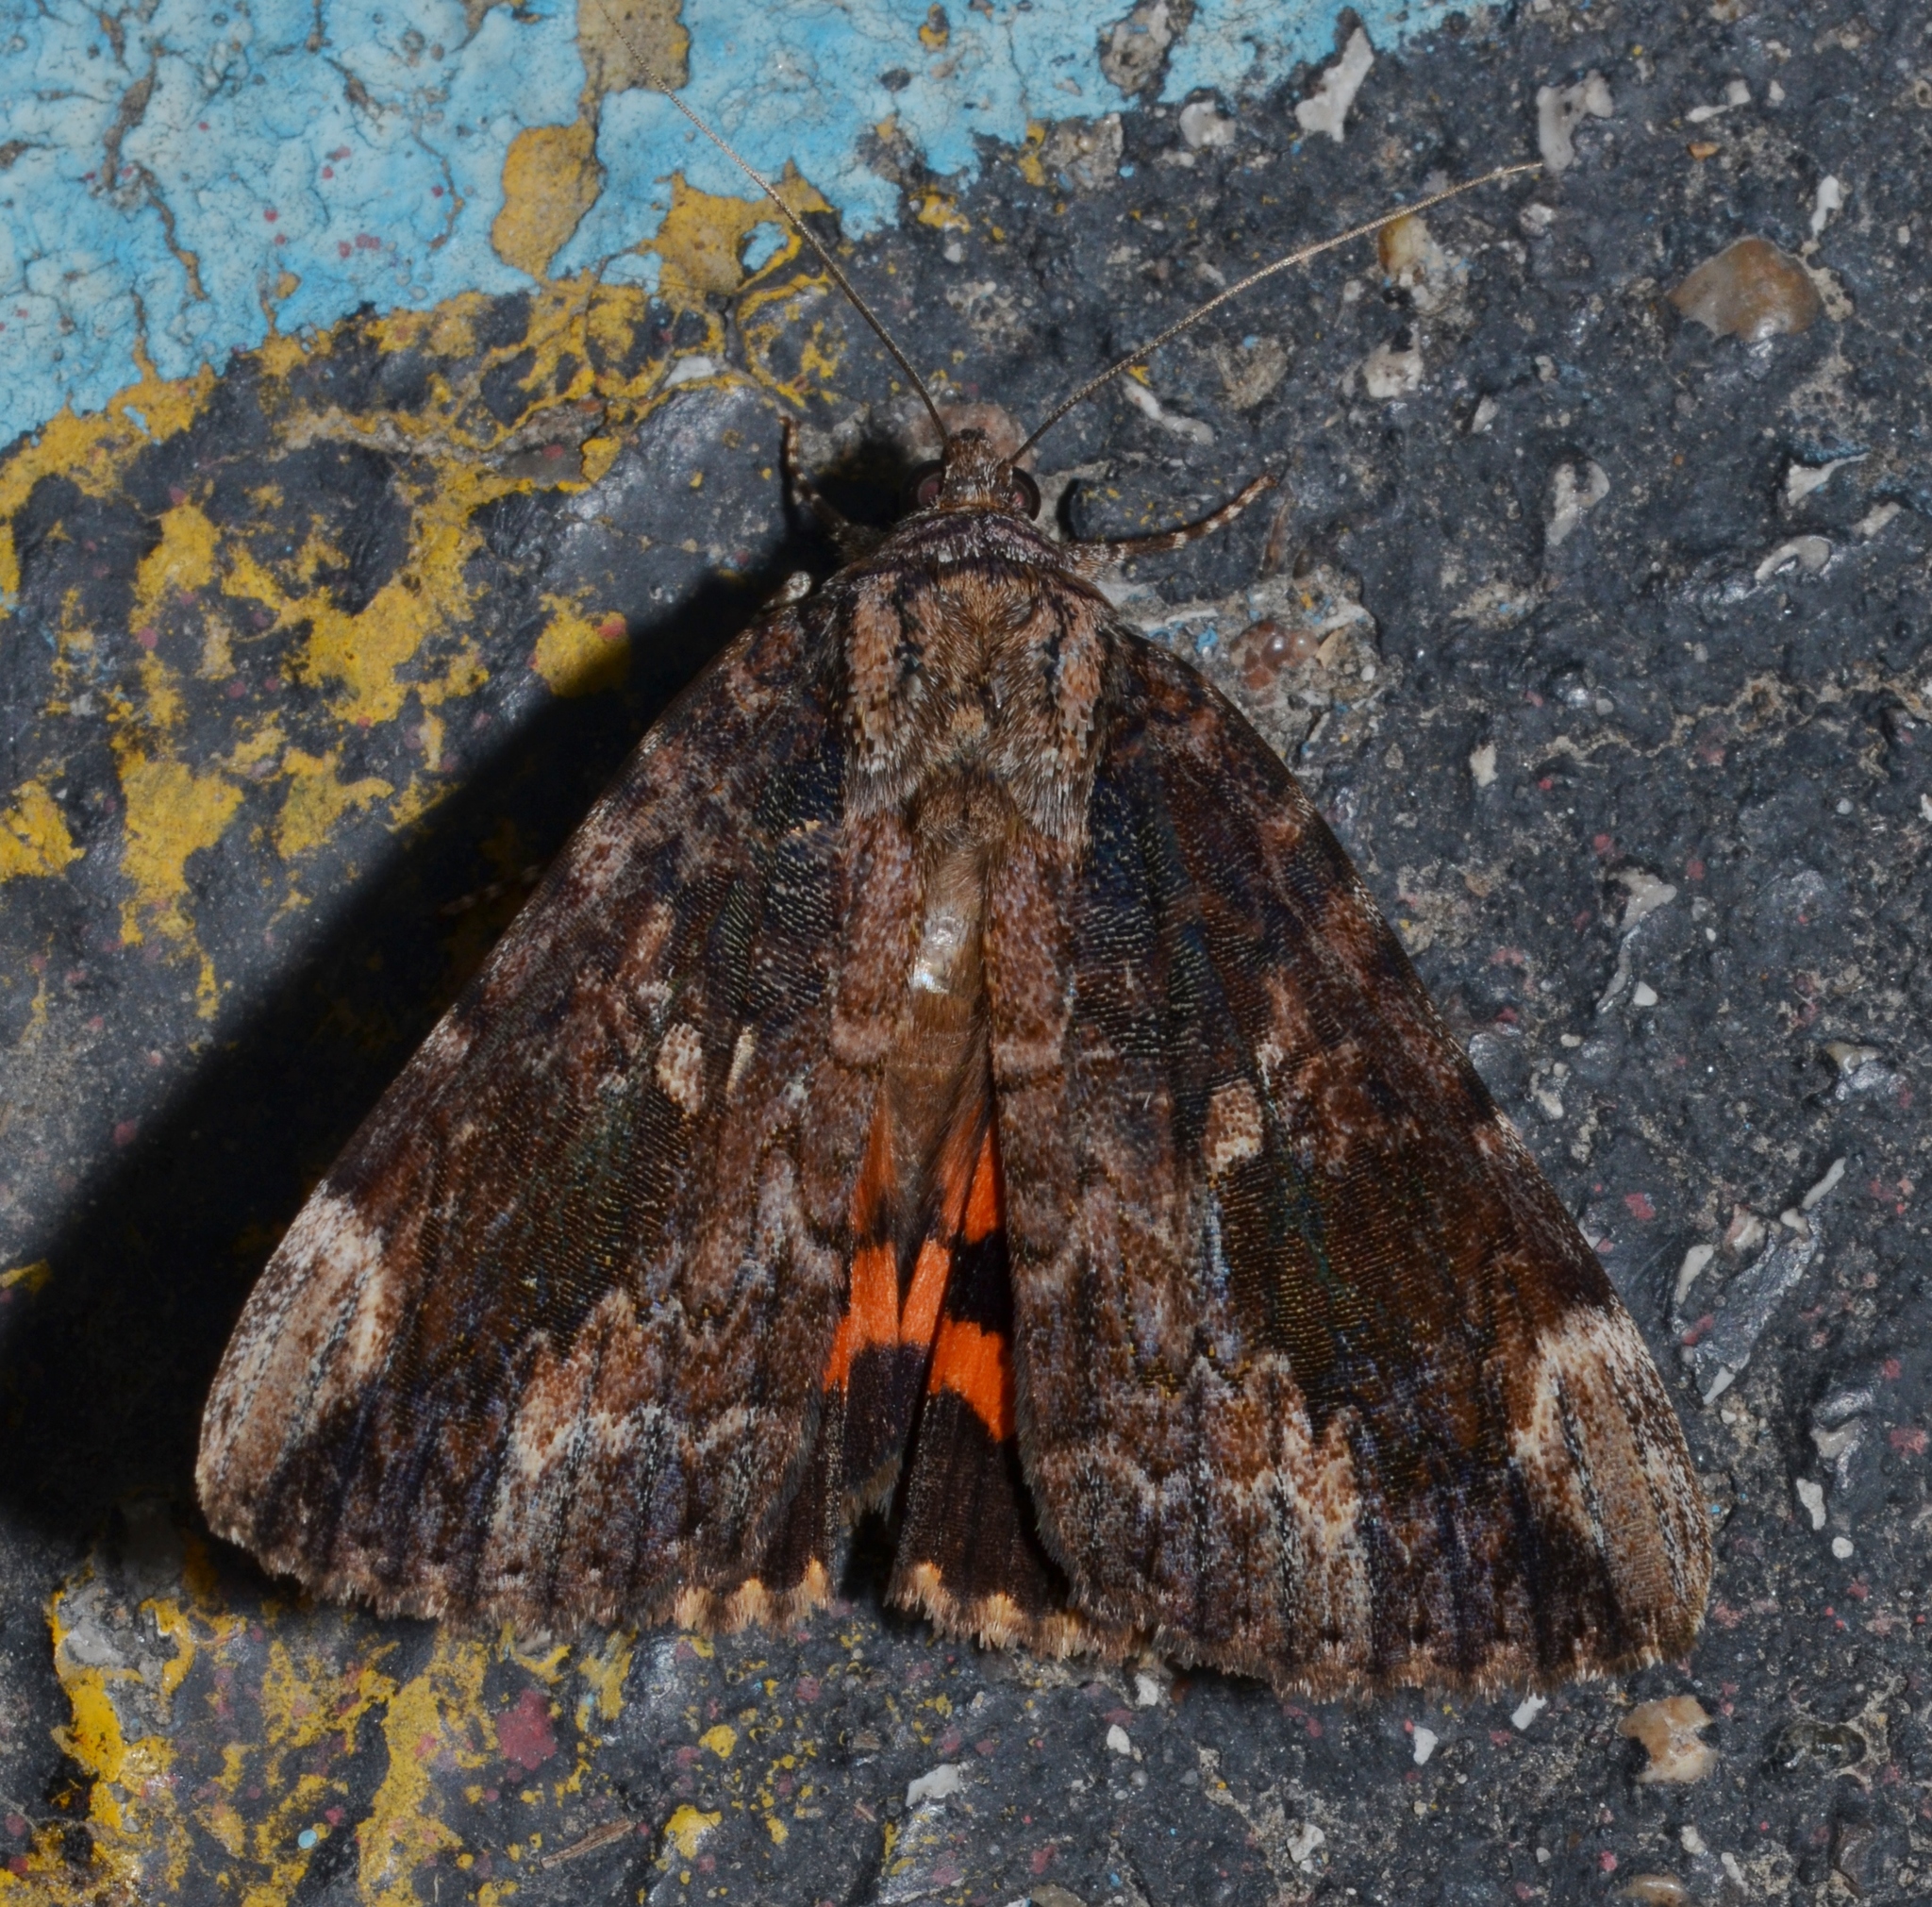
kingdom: Animalia
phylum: Arthropoda
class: Insecta
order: Lepidoptera
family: Erebidae
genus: Catocala
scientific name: Catocala innubens
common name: Betrothed underwing
